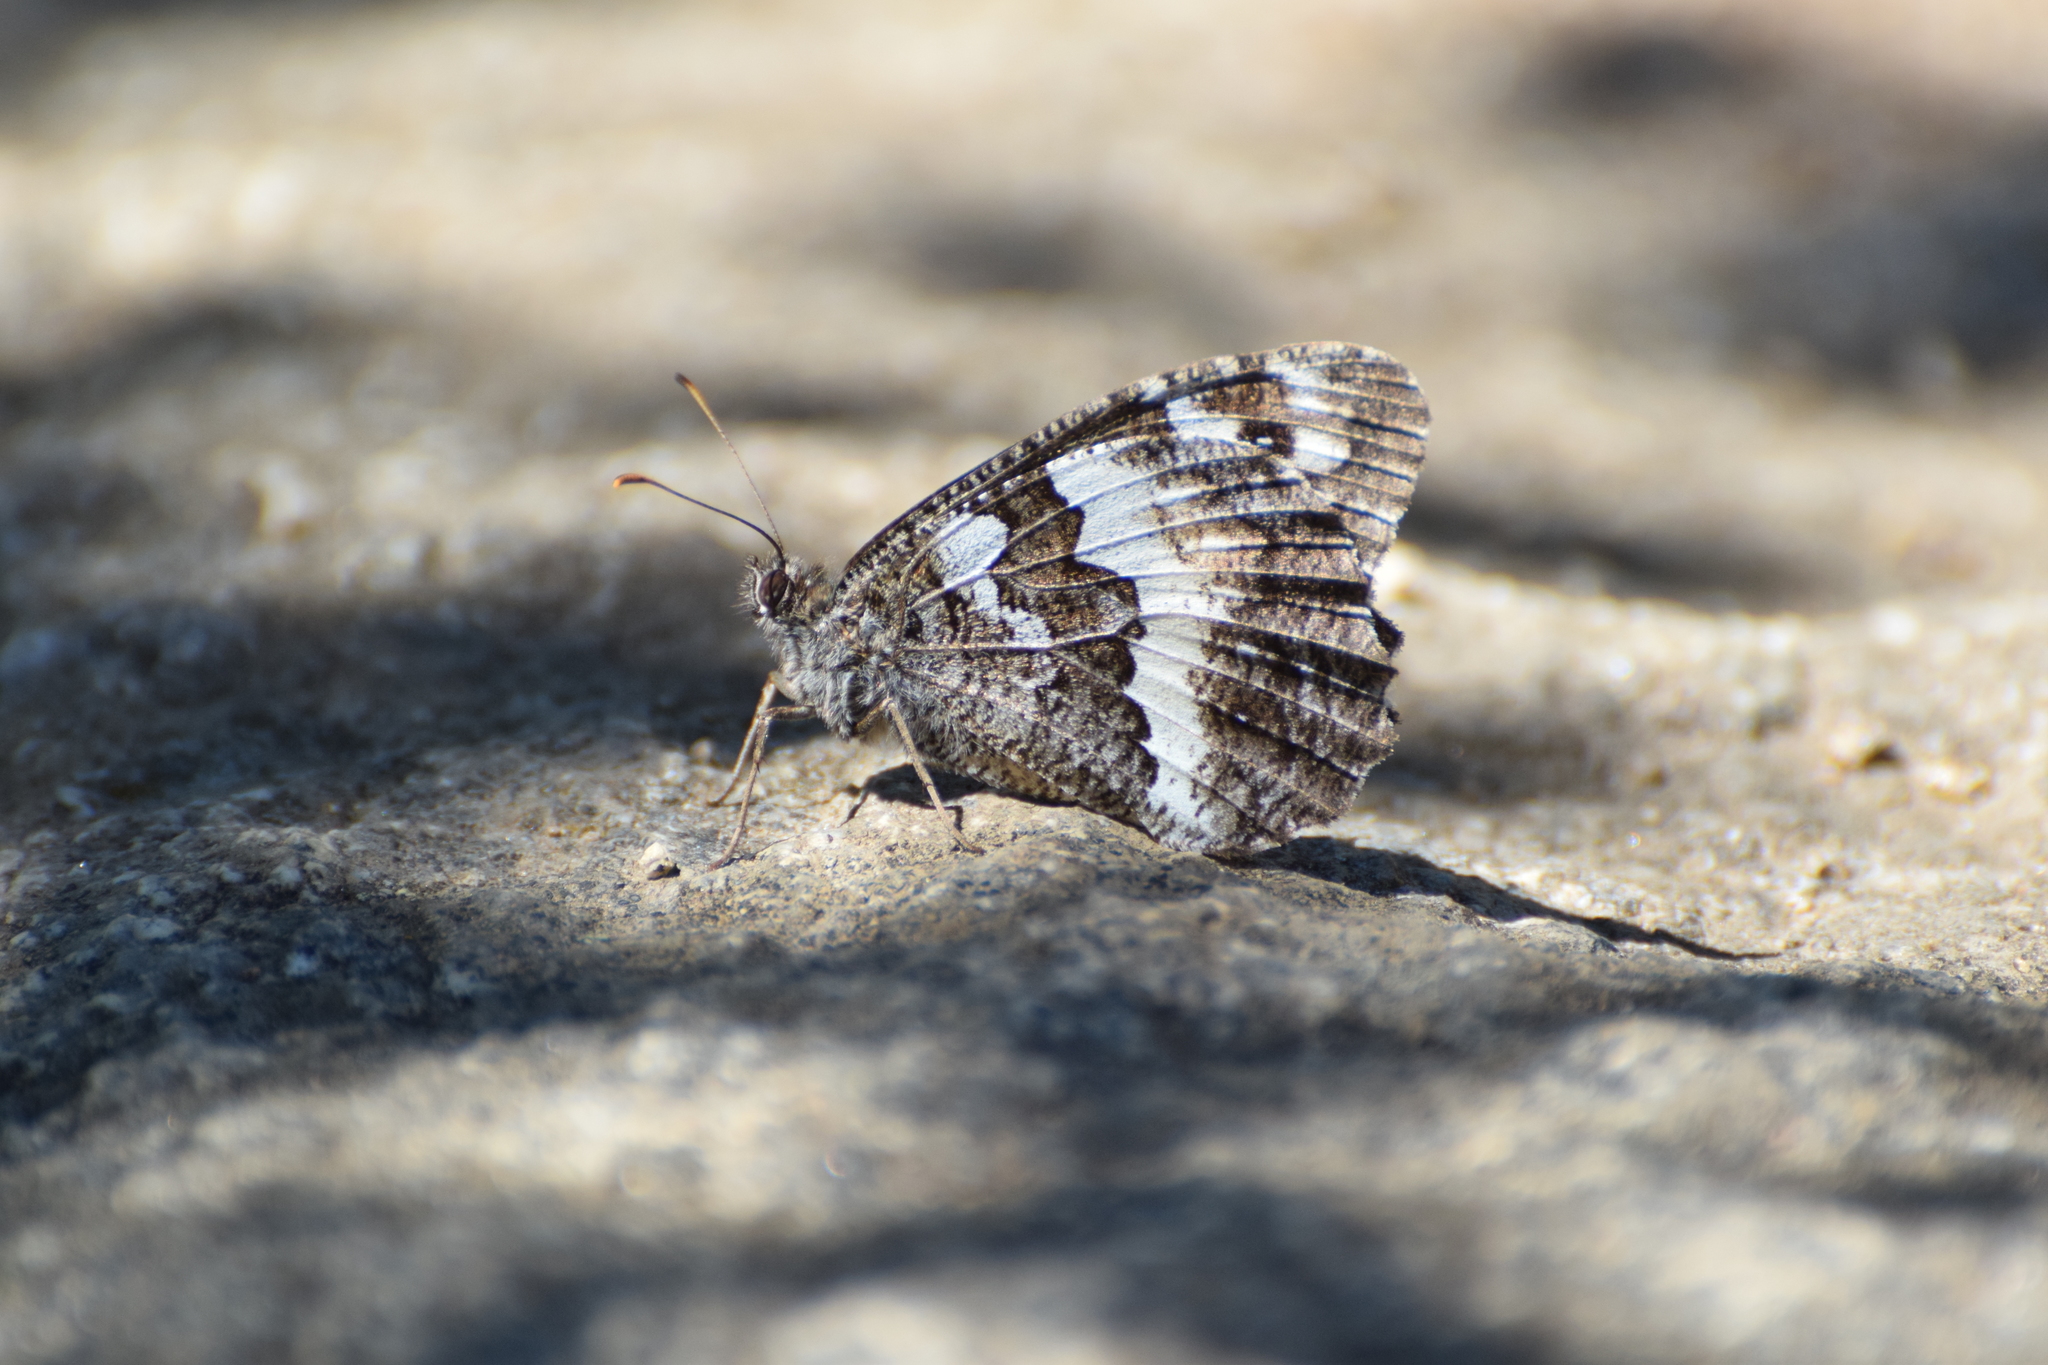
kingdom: Animalia
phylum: Arthropoda
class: Insecta
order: Lepidoptera
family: Lycaenidae
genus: Loweia
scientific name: Loweia tityrus
